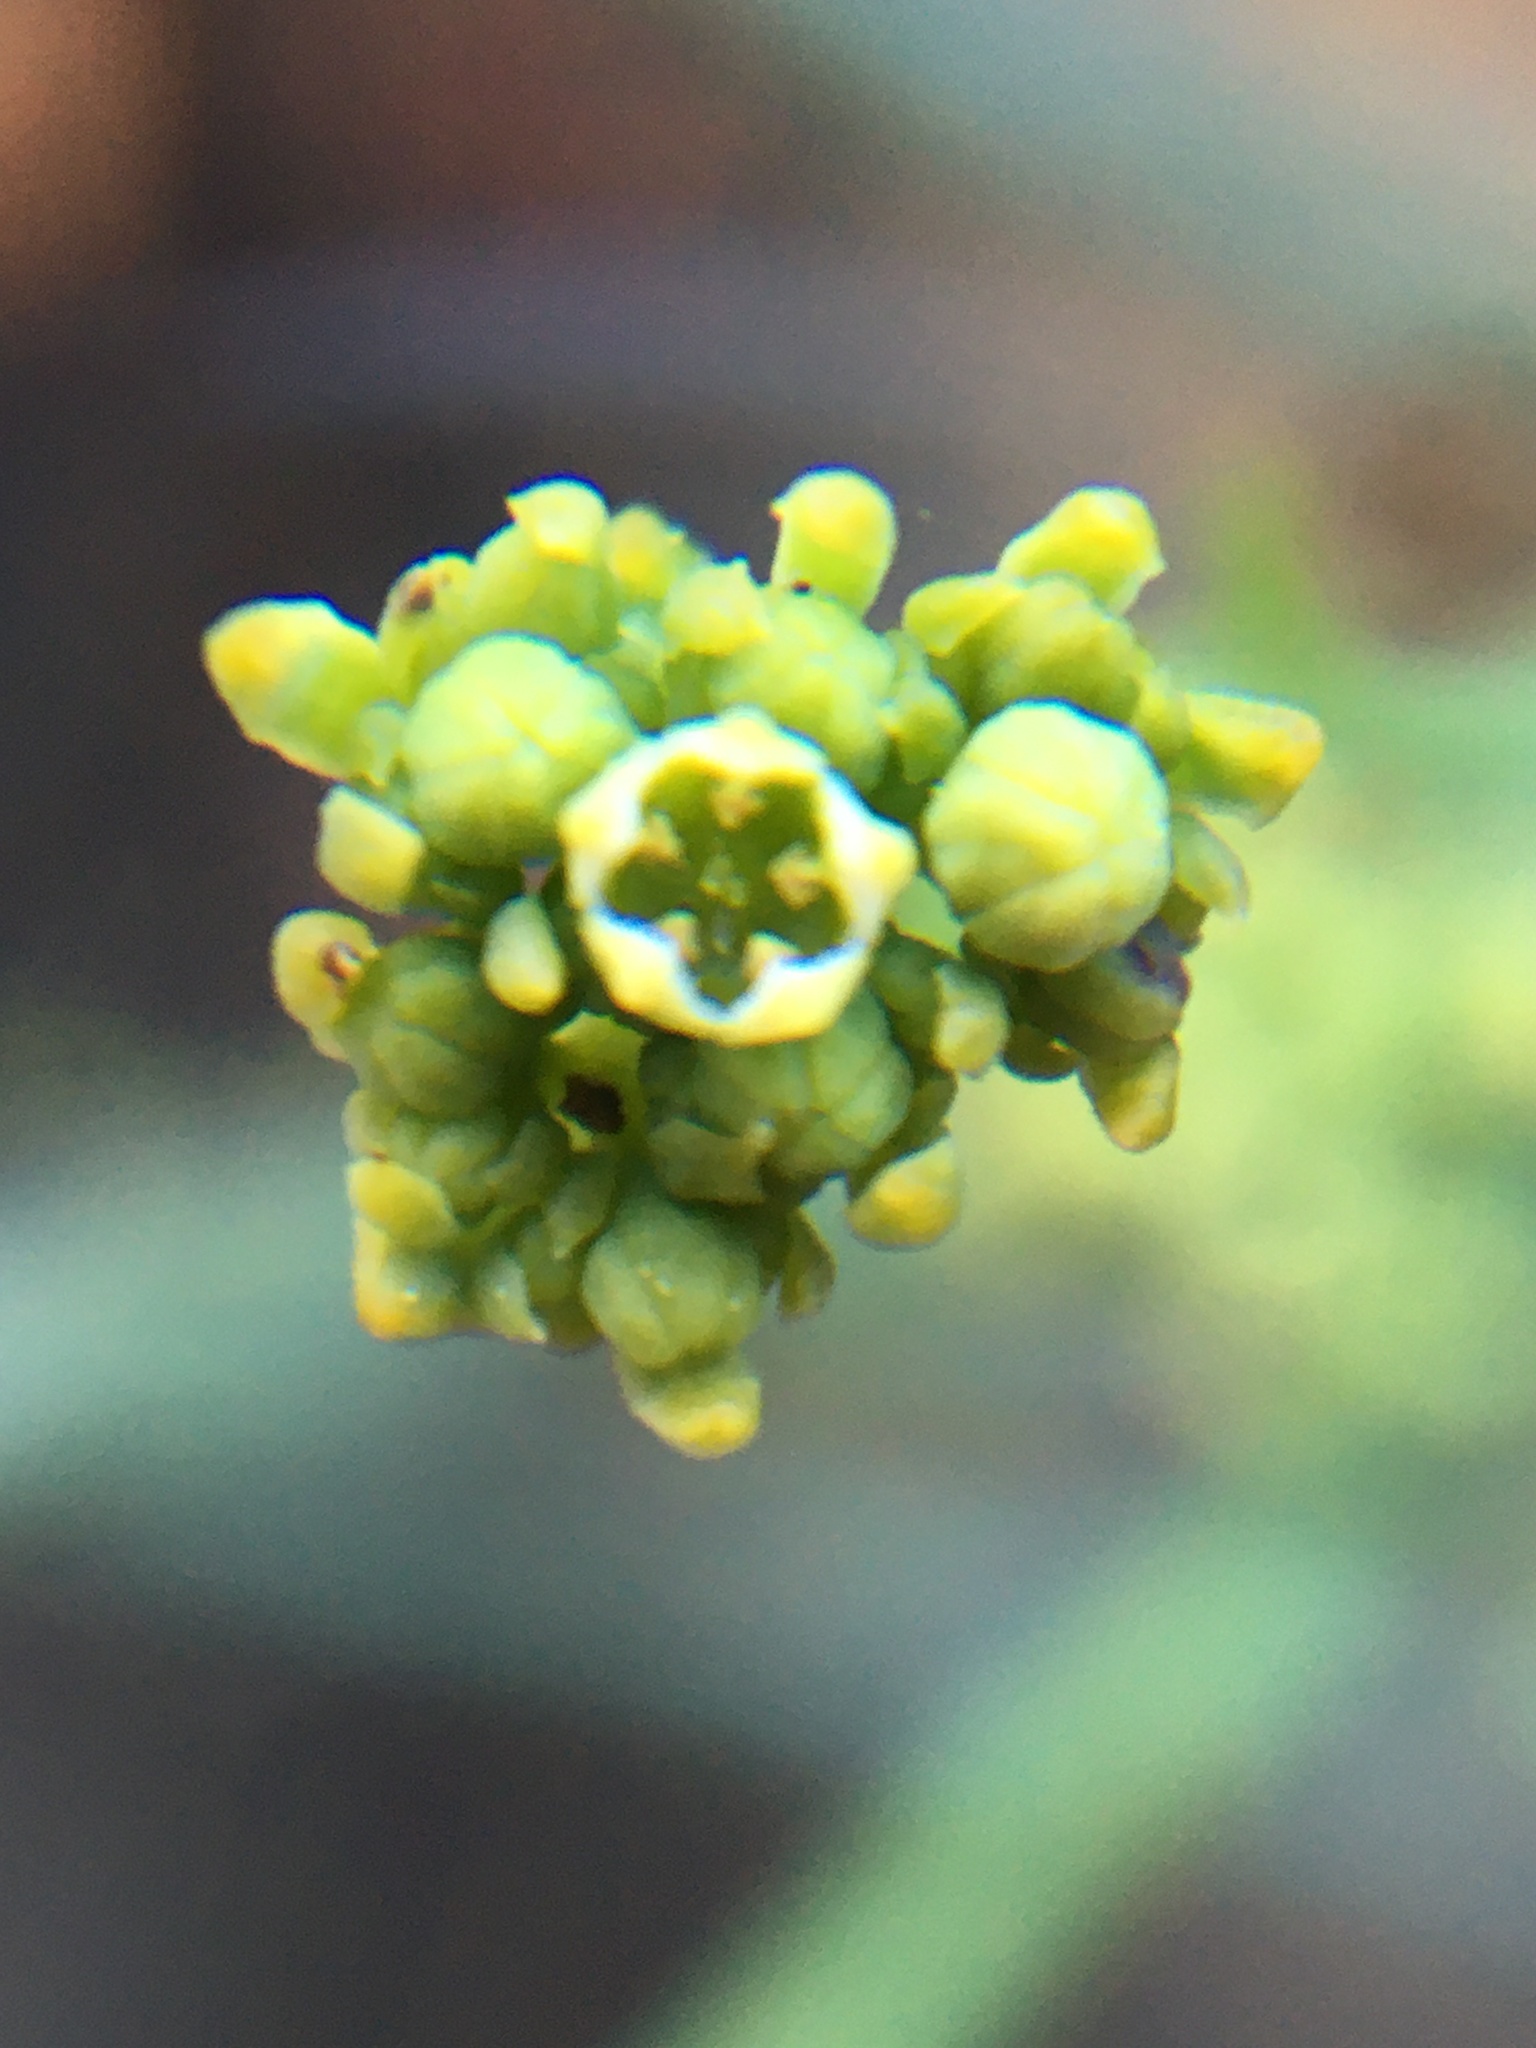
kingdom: Plantae
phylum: Tracheophyta
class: Magnoliopsida
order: Santalales
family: Thesiaceae
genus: Thesium
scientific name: Thesium strictum
